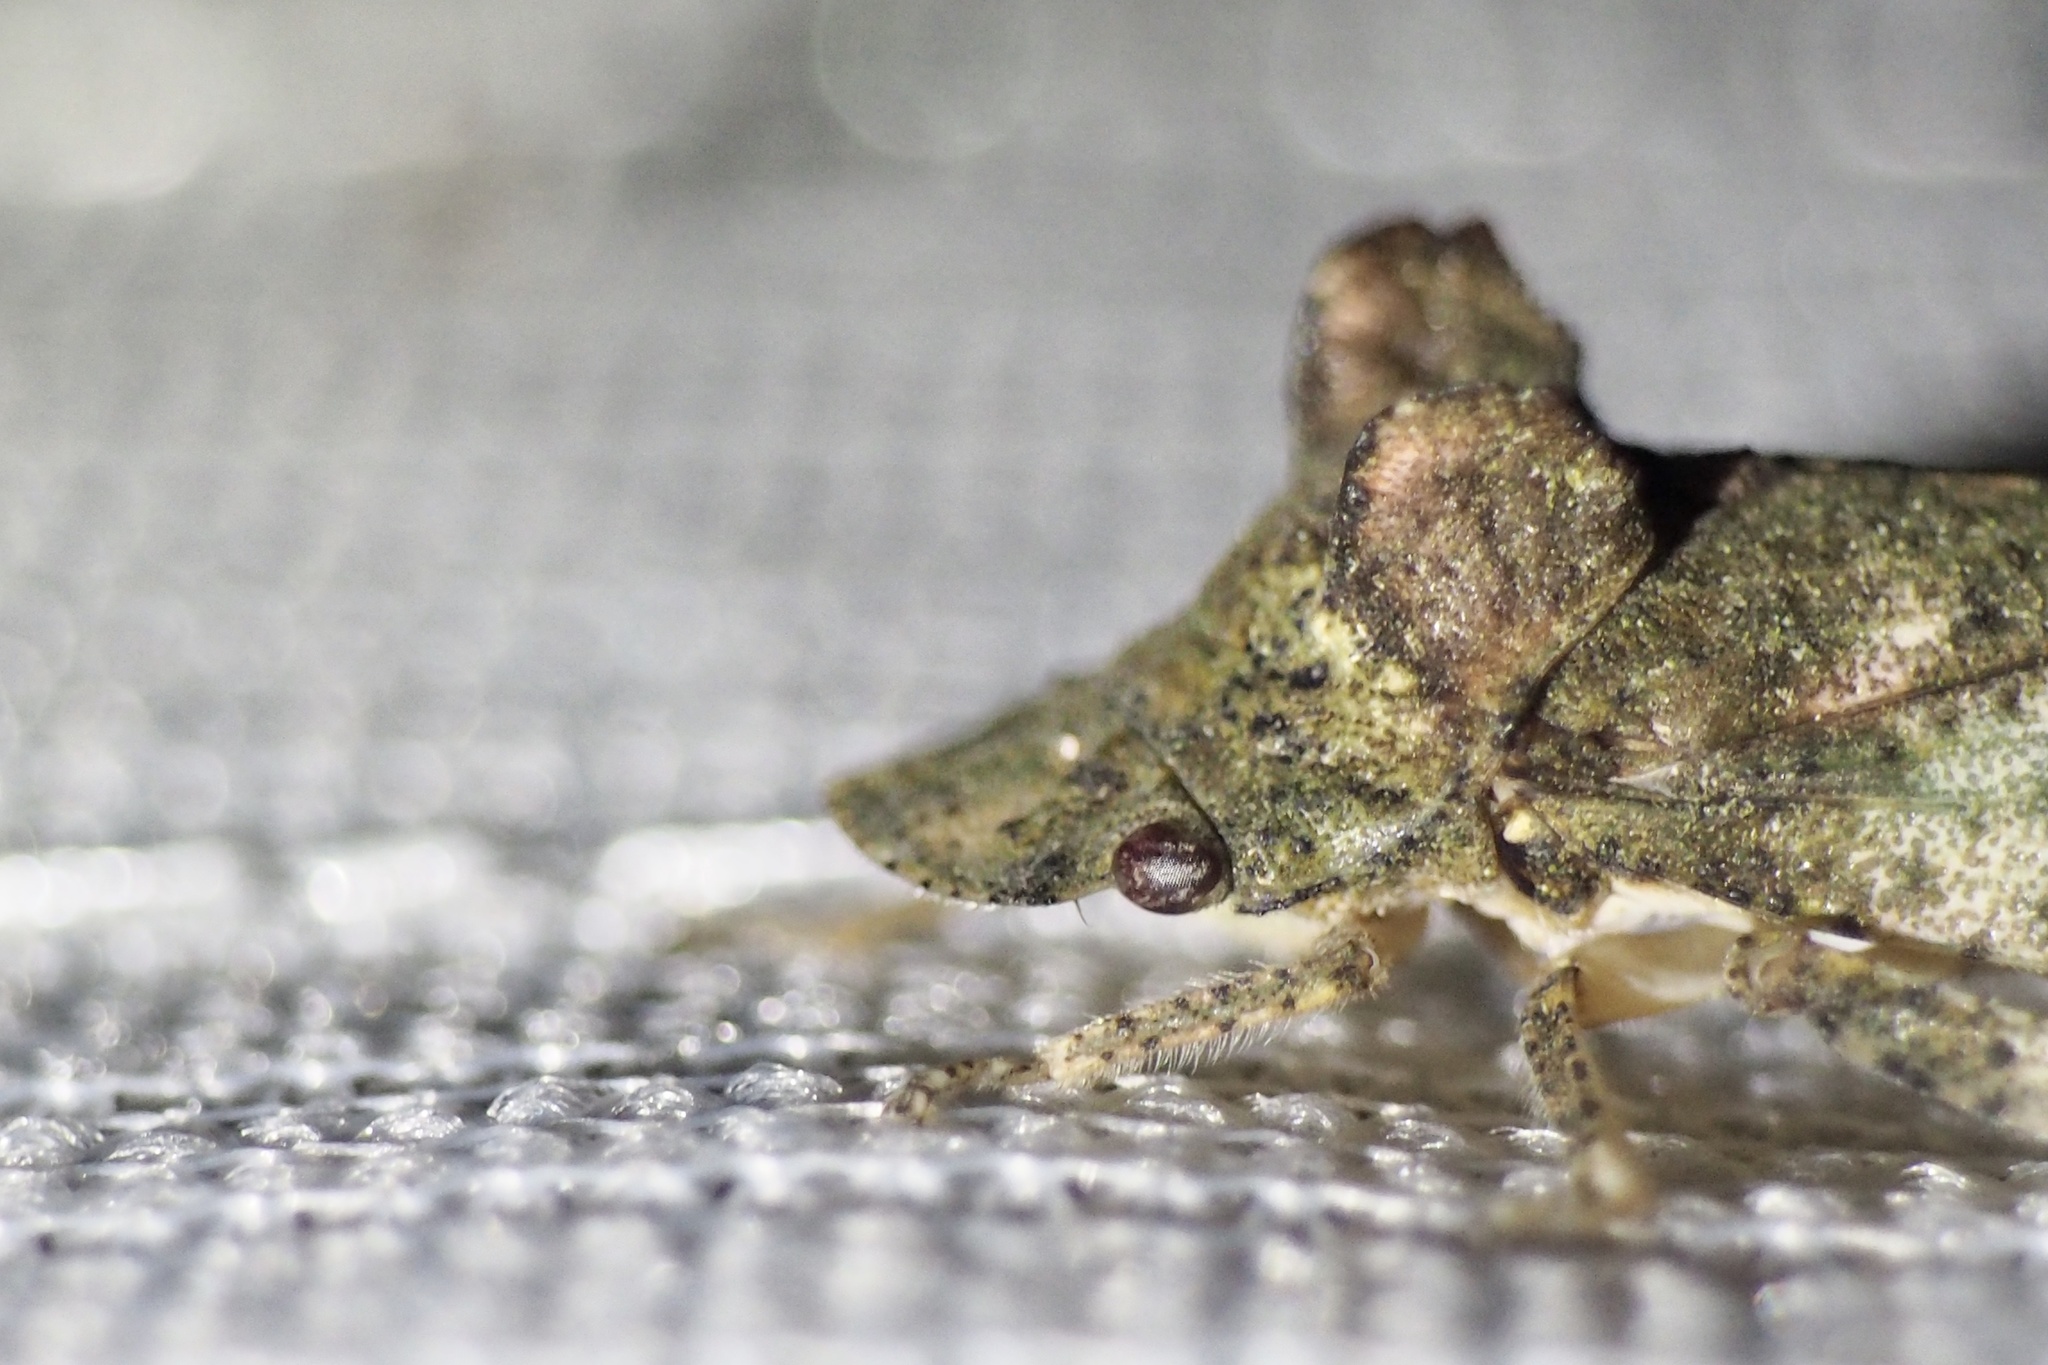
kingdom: Animalia
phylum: Arthropoda
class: Insecta
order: Hemiptera
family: Cicadellidae
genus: Ledra
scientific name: Ledra auditura
